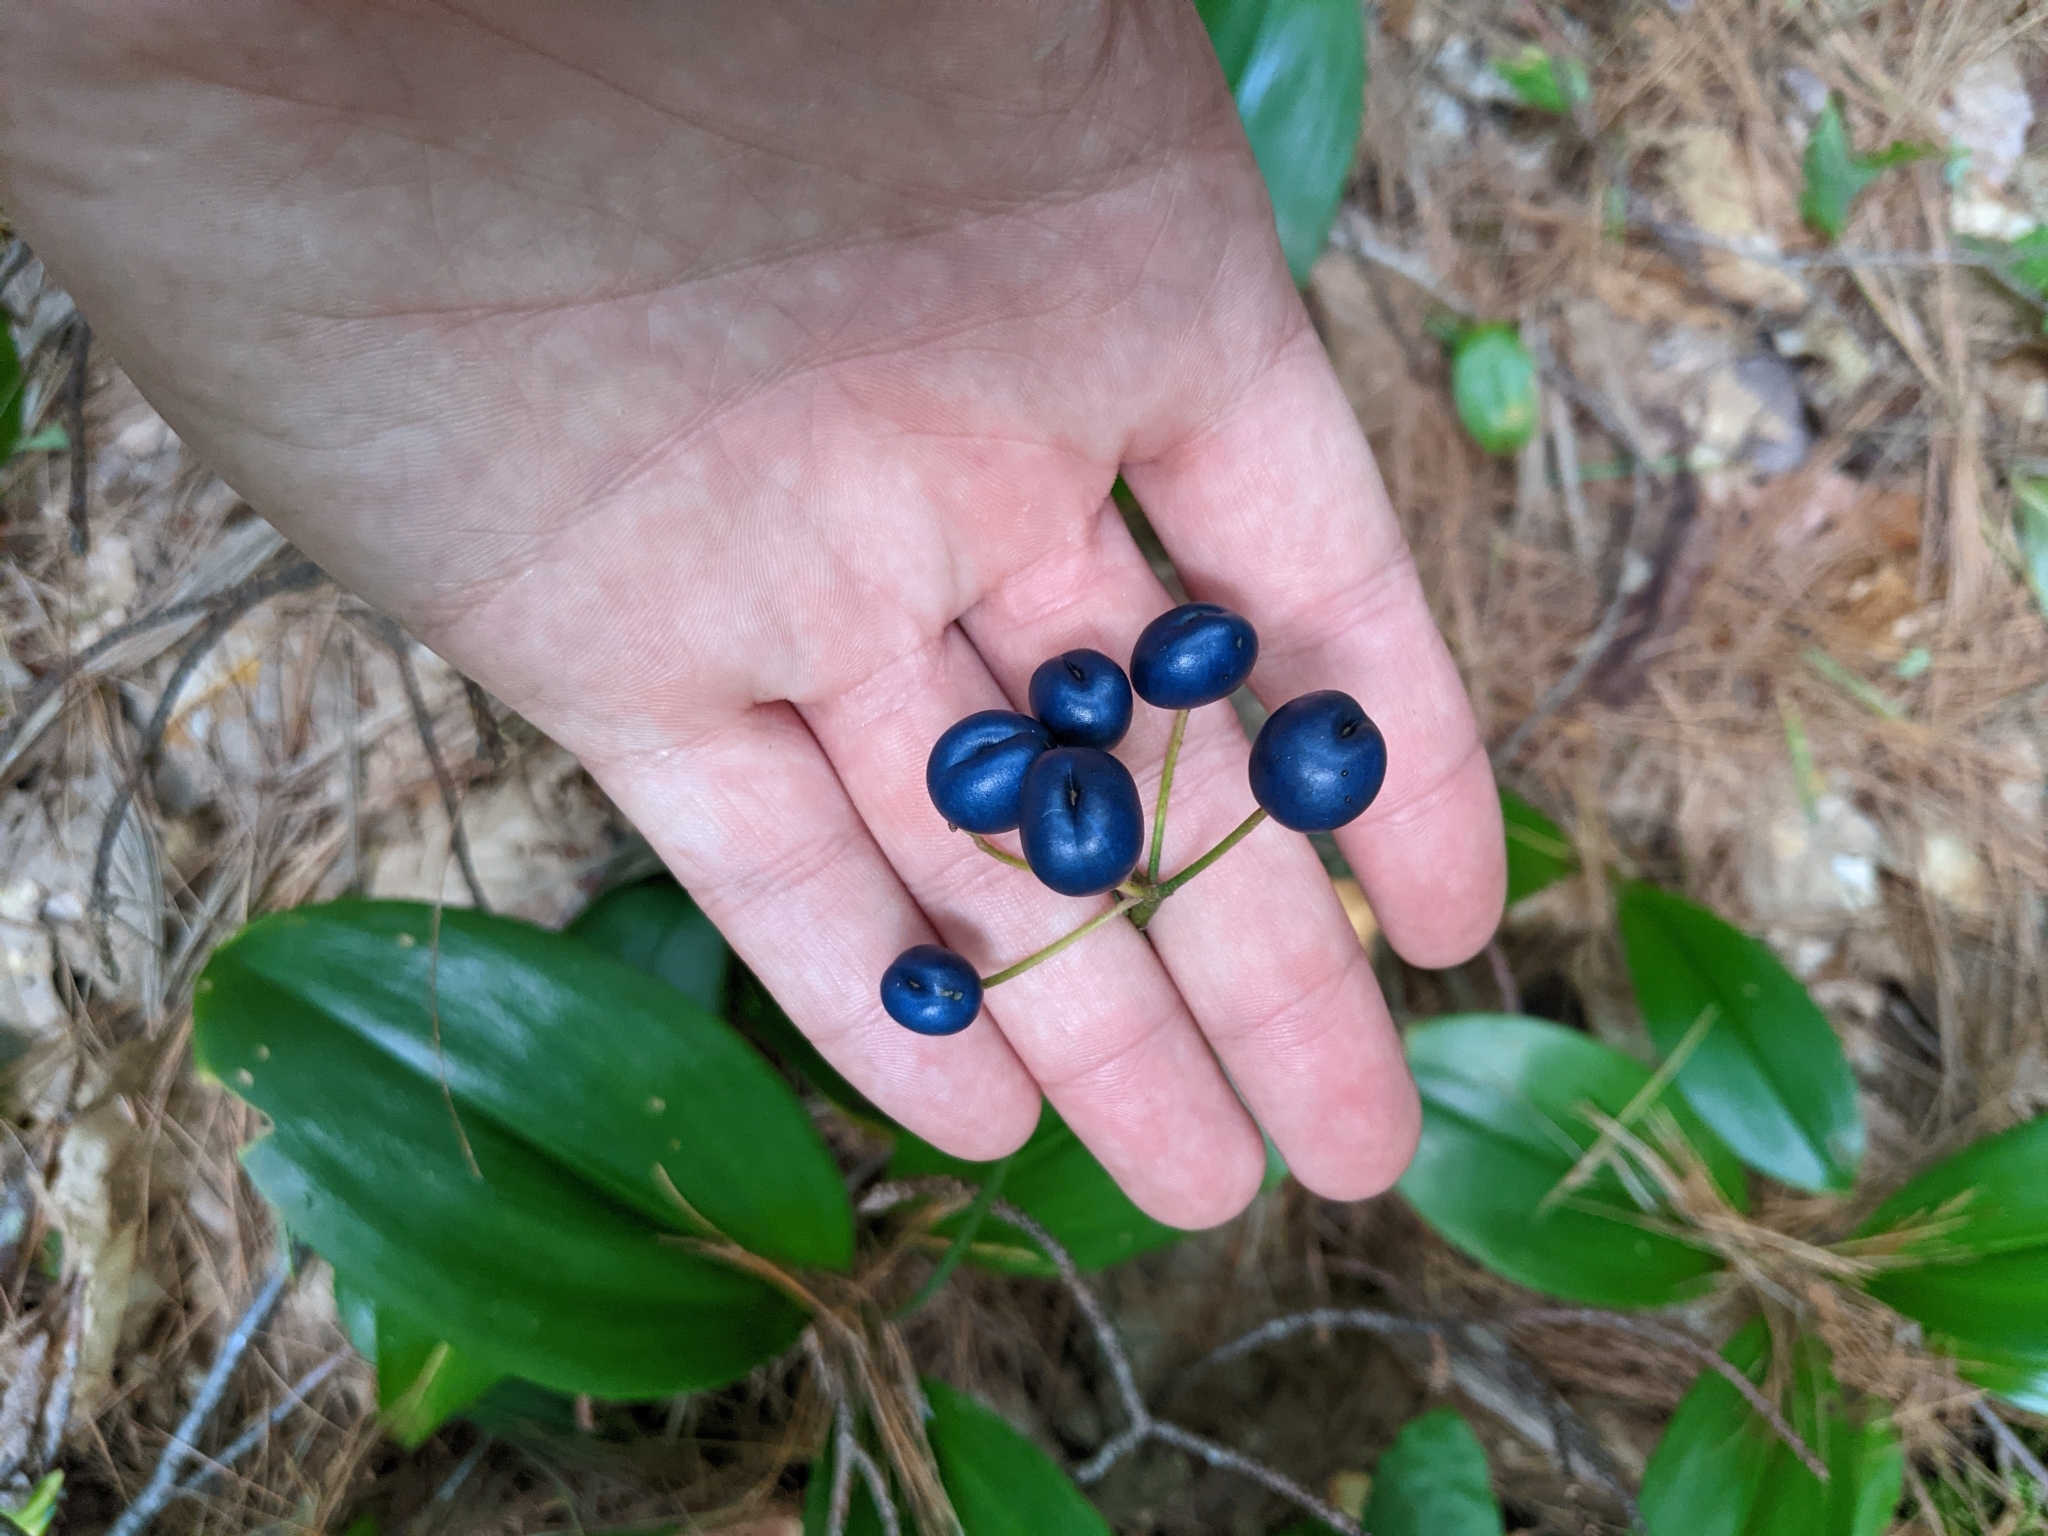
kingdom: Plantae
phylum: Tracheophyta
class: Liliopsida
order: Liliales
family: Liliaceae
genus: Clintonia
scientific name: Clintonia borealis
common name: Yellow clintonia
